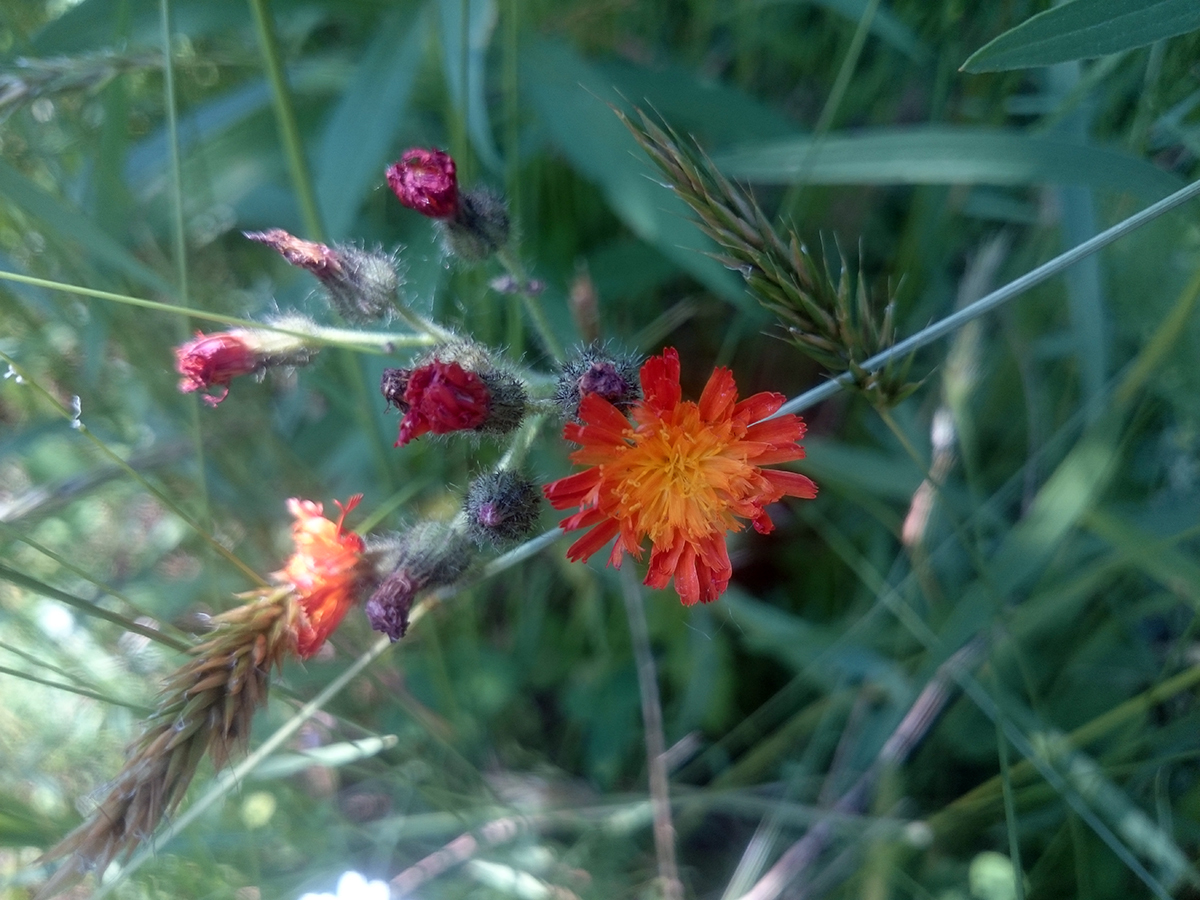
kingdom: Plantae
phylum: Tracheophyta
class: Magnoliopsida
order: Asterales
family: Asteraceae
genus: Pilosella
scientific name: Pilosella aurantiaca
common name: Fox-and-cubs
